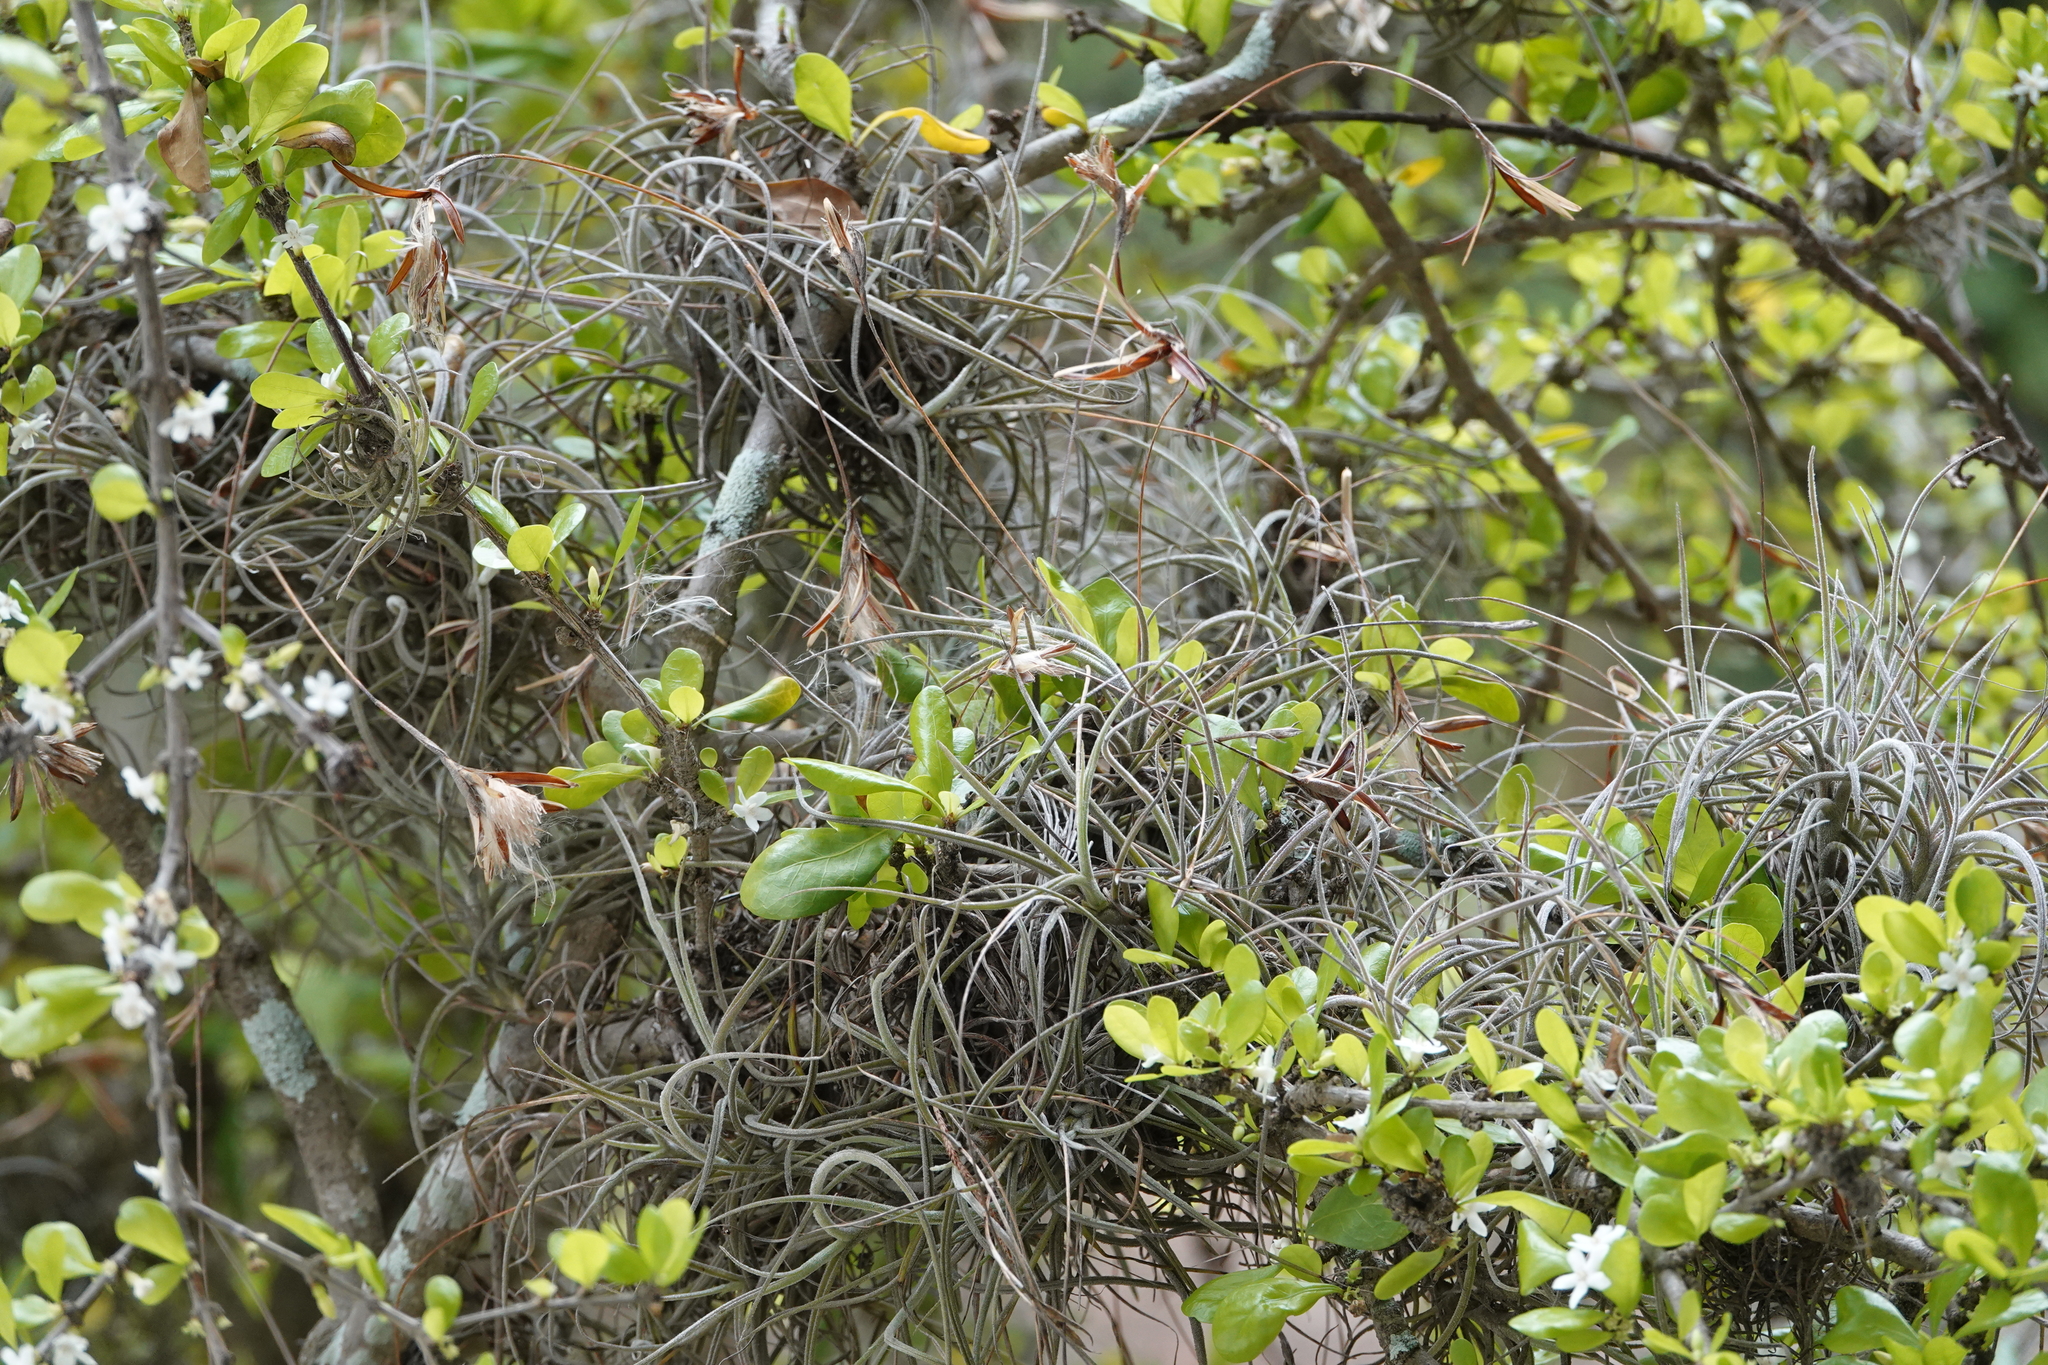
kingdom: Plantae
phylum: Tracheophyta
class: Liliopsida
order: Poales
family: Bromeliaceae
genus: Tillandsia
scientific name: Tillandsia recurvata
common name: Small ballmoss
